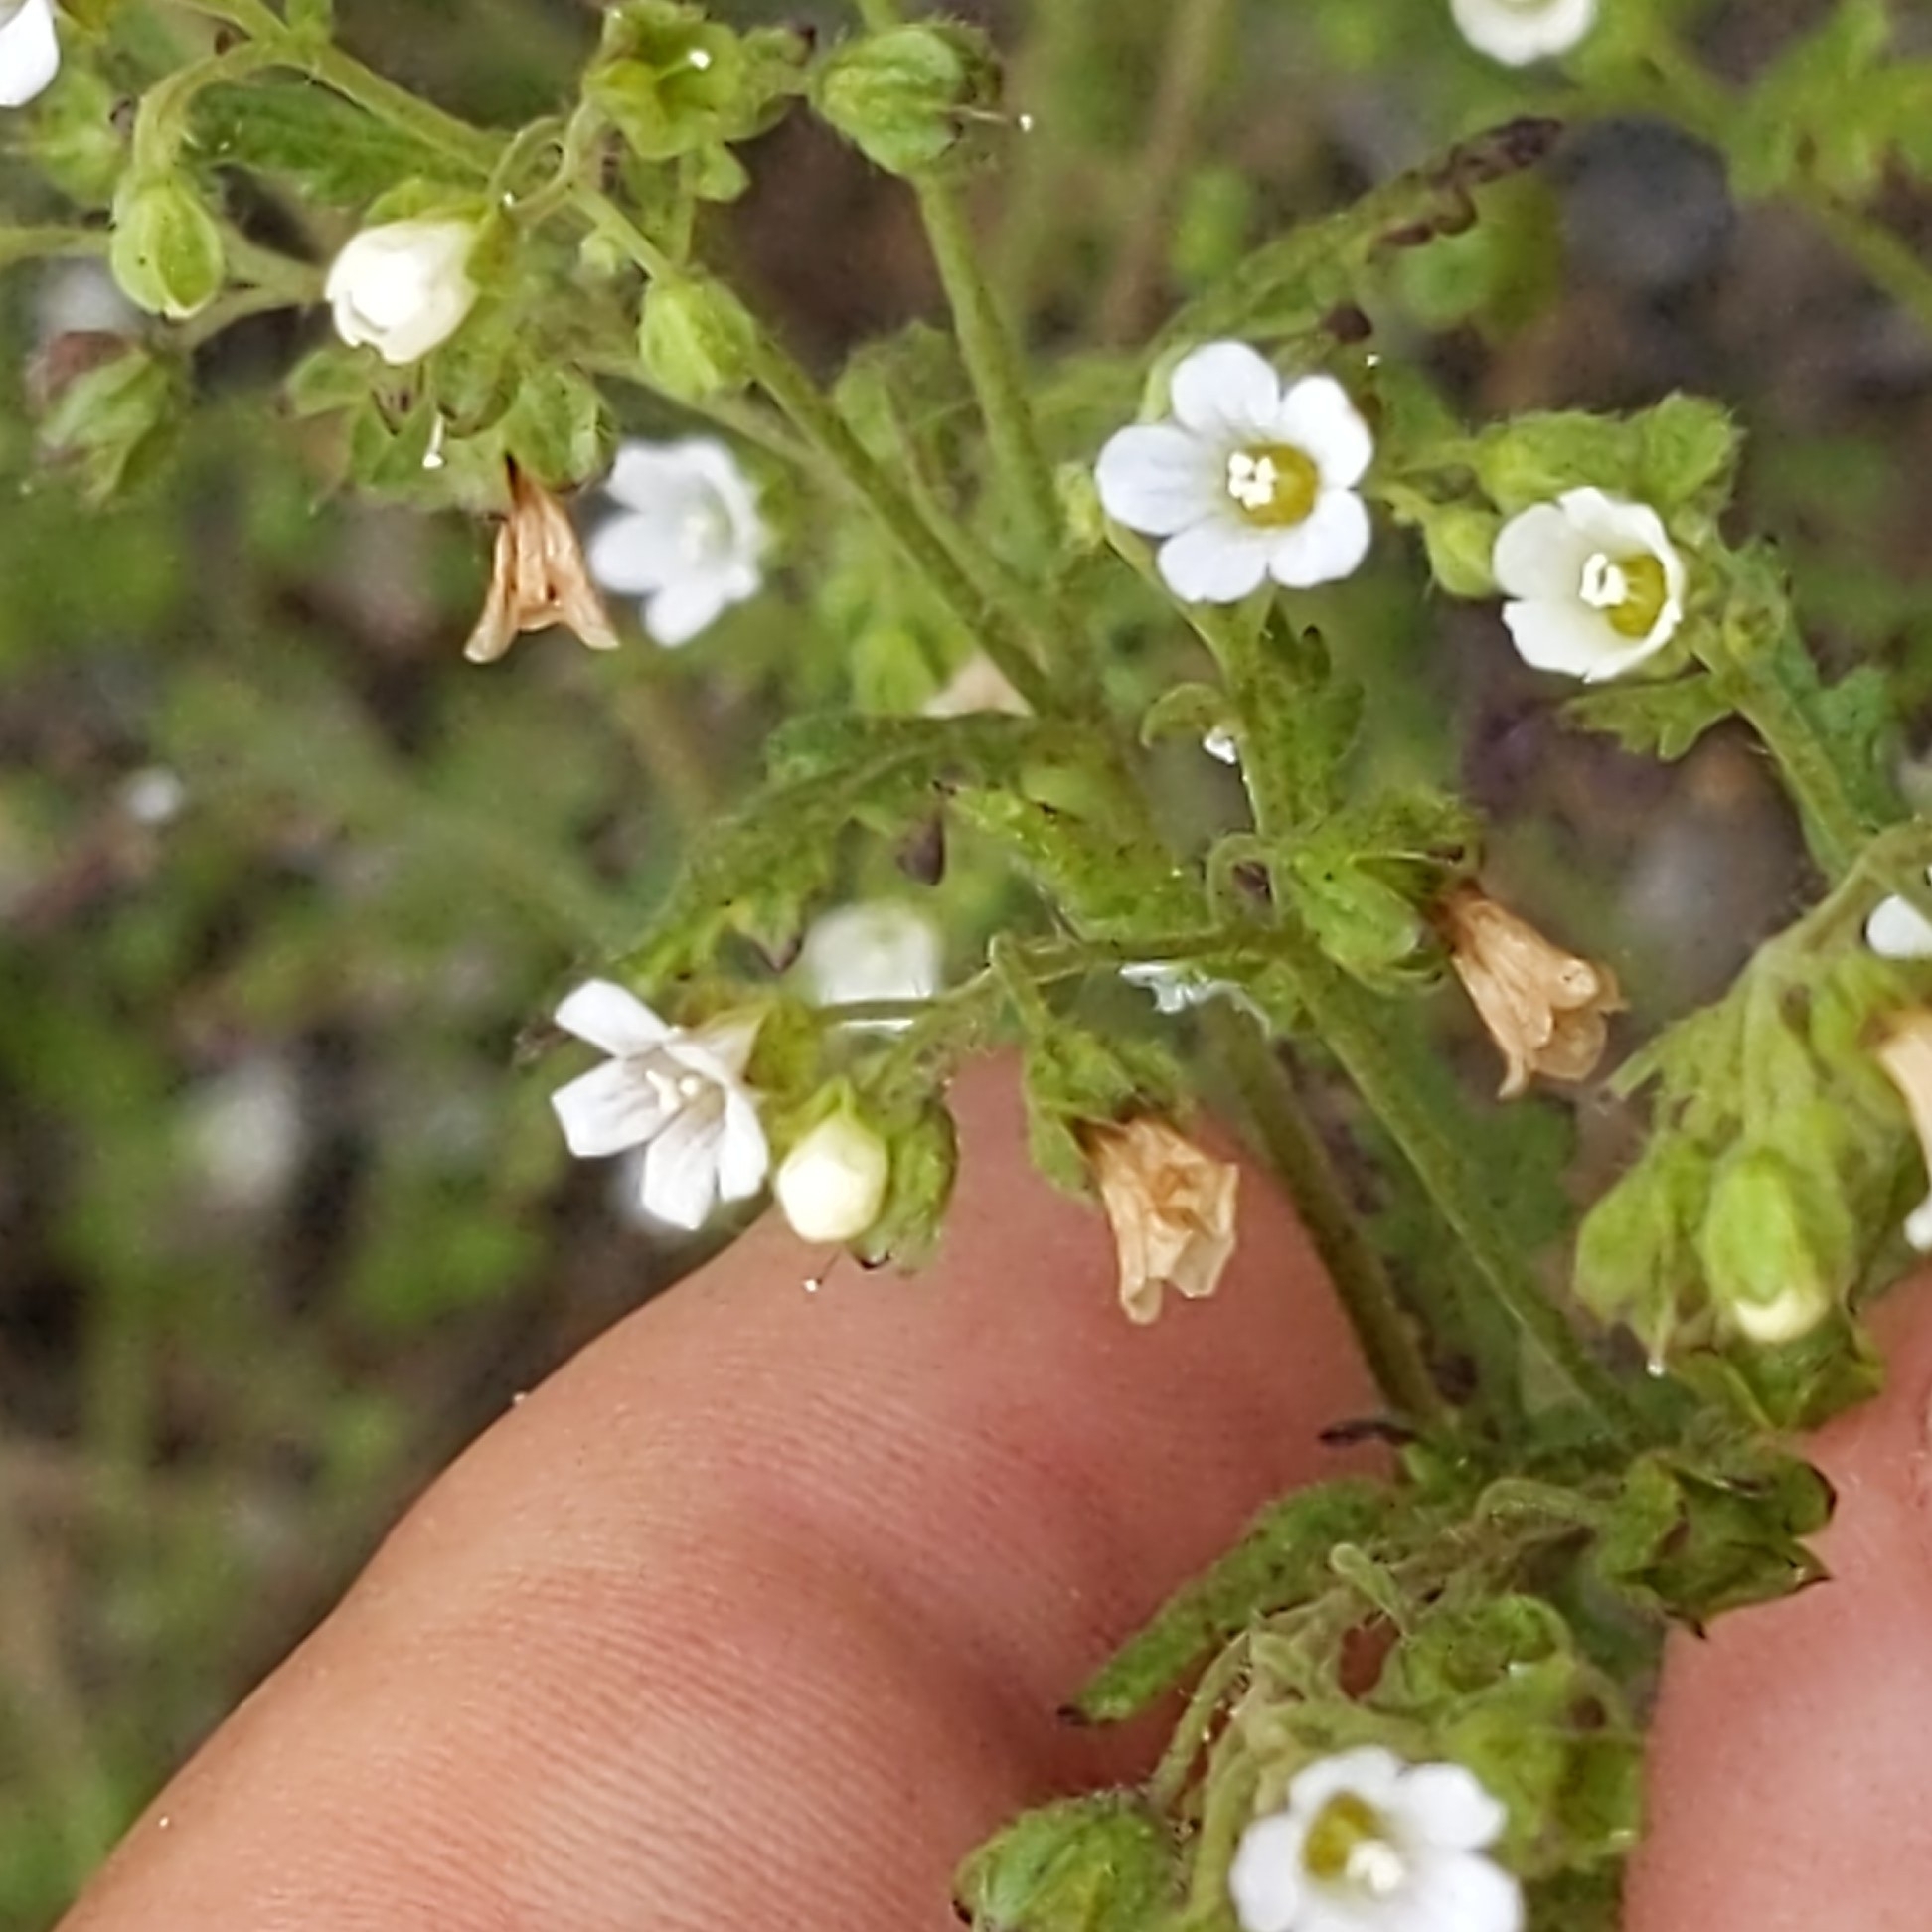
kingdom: Plantae
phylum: Tracheophyta
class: Magnoliopsida
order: Boraginales
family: Hydrophyllaceae
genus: Eucrypta
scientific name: Eucrypta chrysanthemifolia
